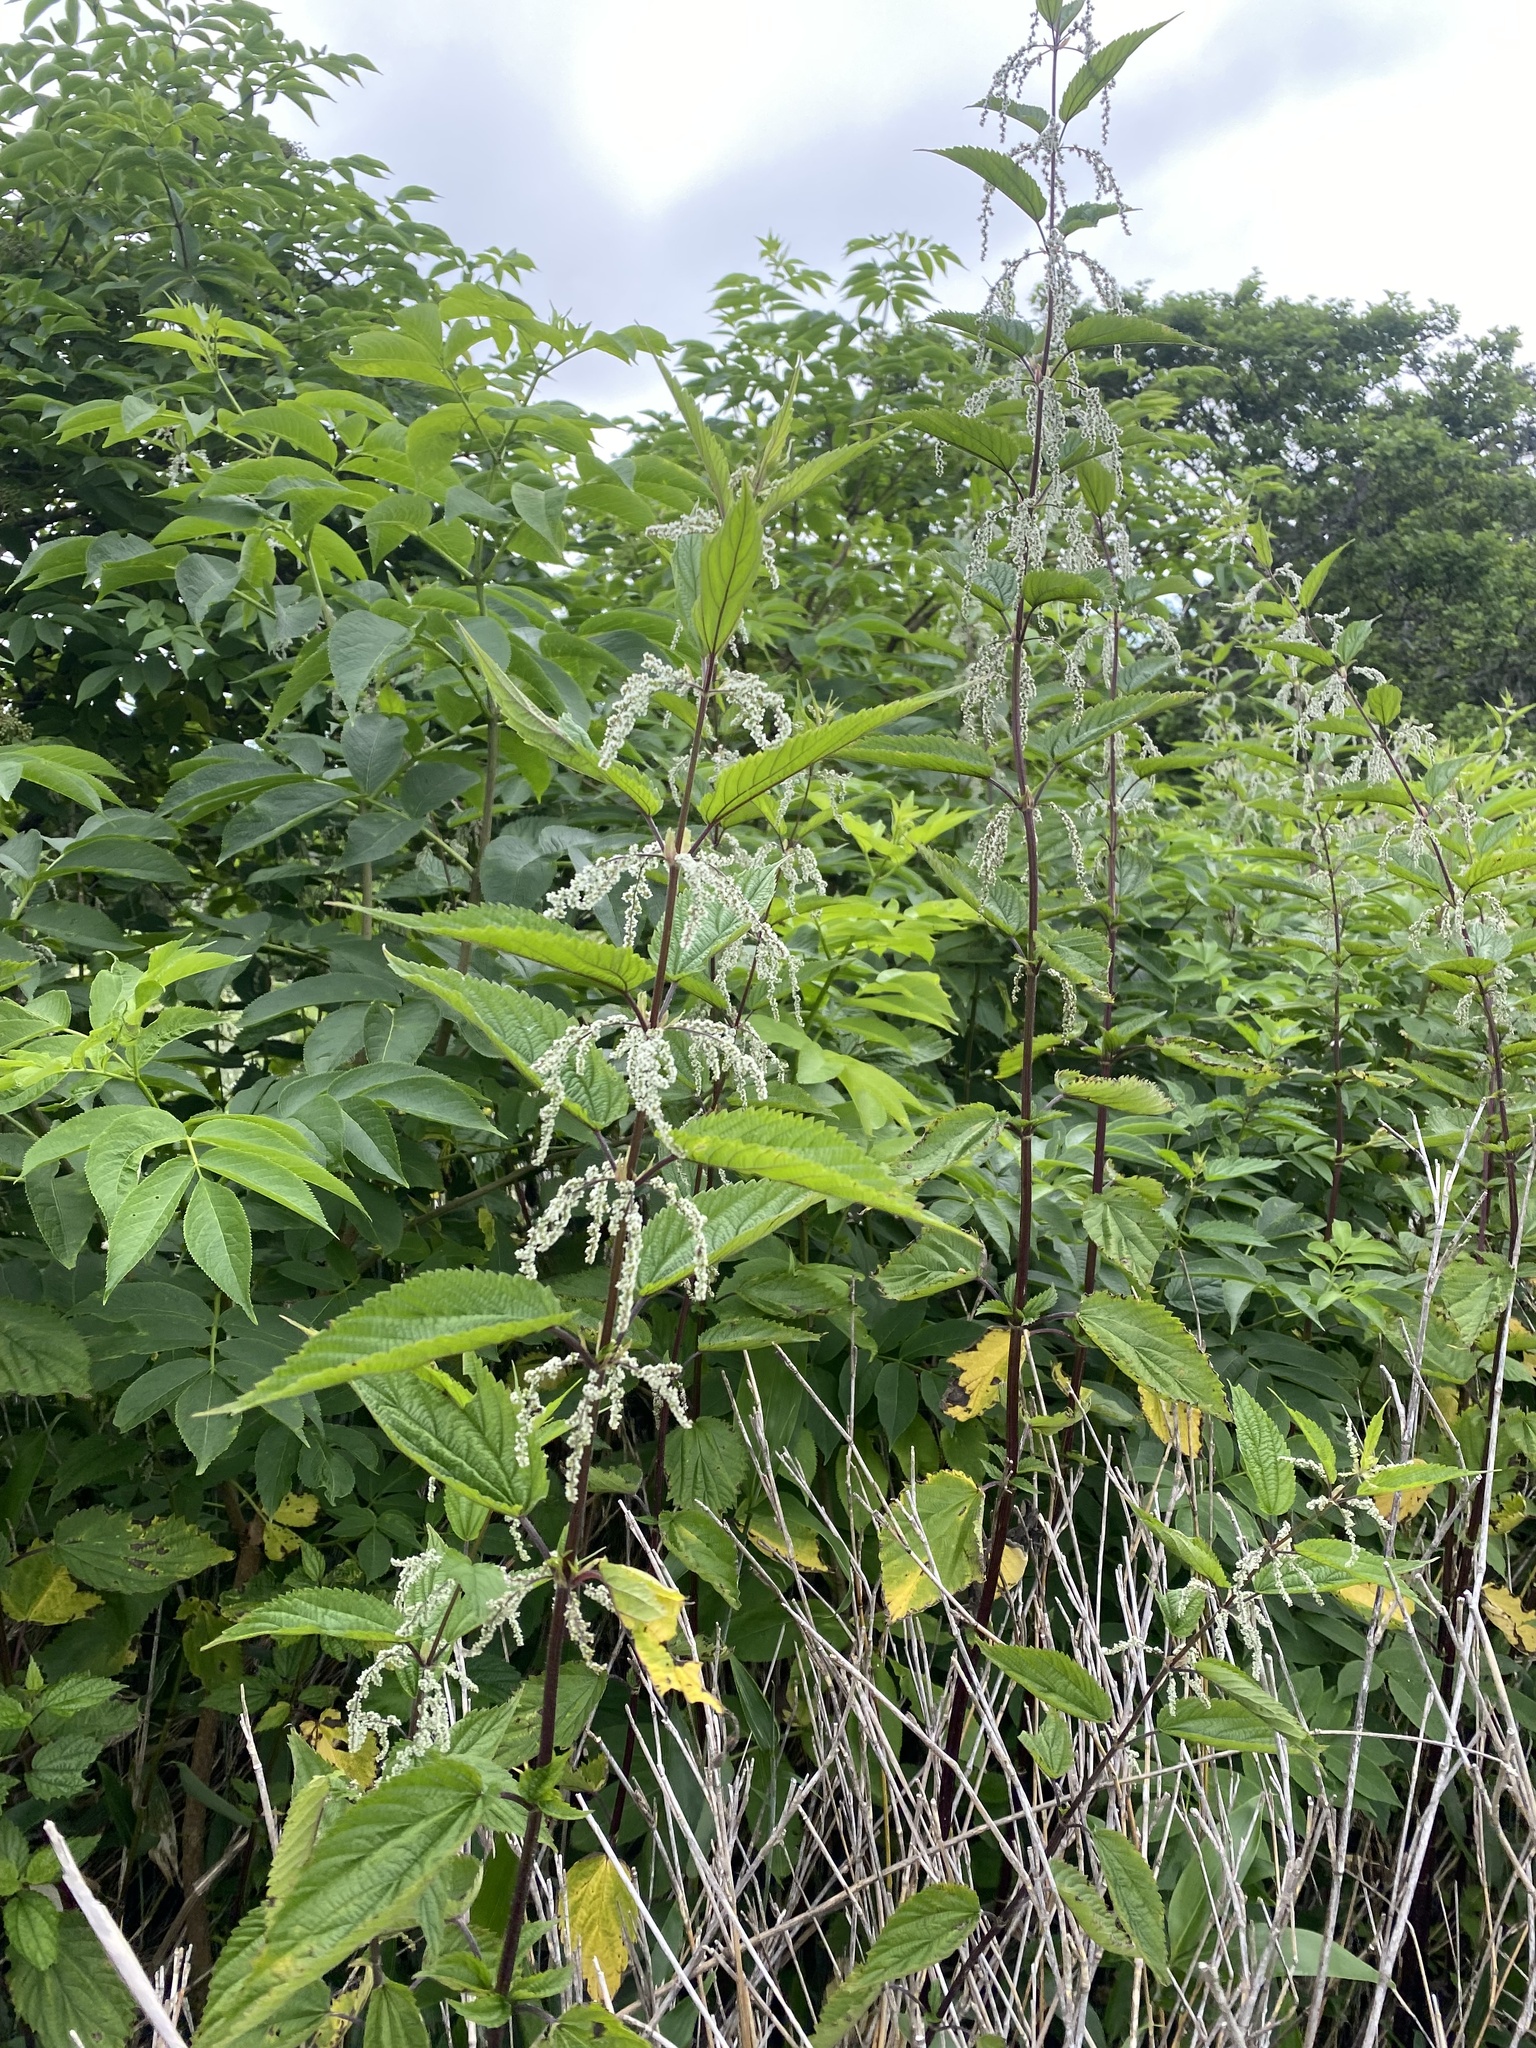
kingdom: Plantae
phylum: Tracheophyta
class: Magnoliopsida
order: Rosales
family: Urticaceae
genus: Urtica
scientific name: Urtica platyphylla
